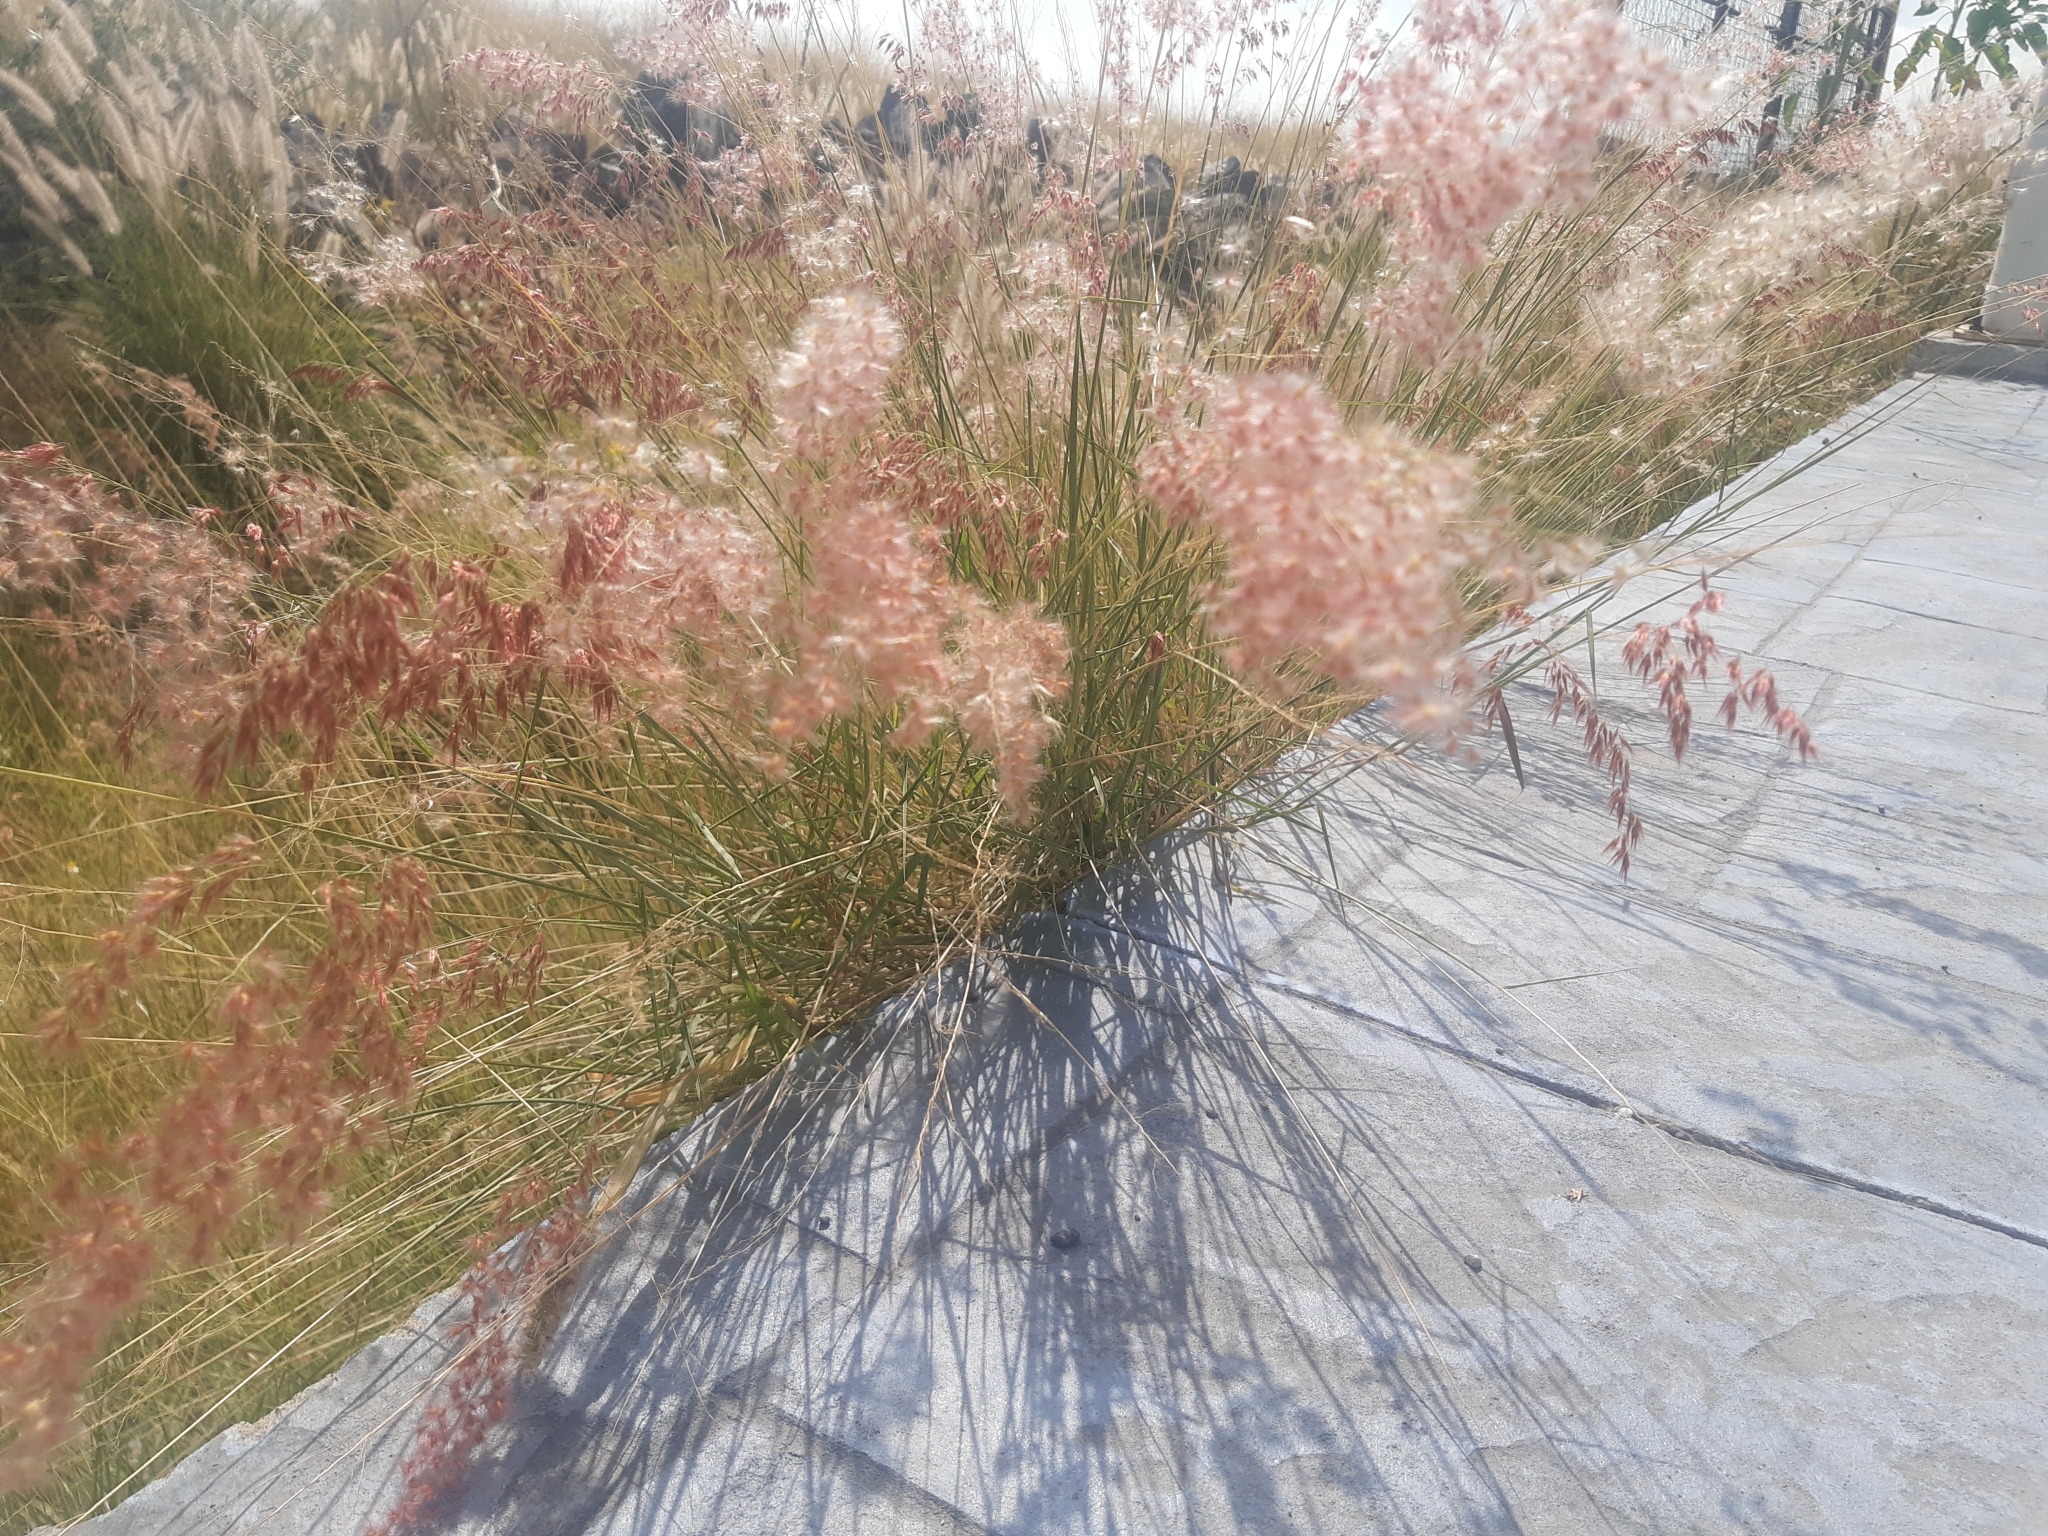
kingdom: Plantae
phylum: Tracheophyta
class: Liliopsida
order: Poales
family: Poaceae
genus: Melinis
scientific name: Melinis repens
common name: Rose natal grass
